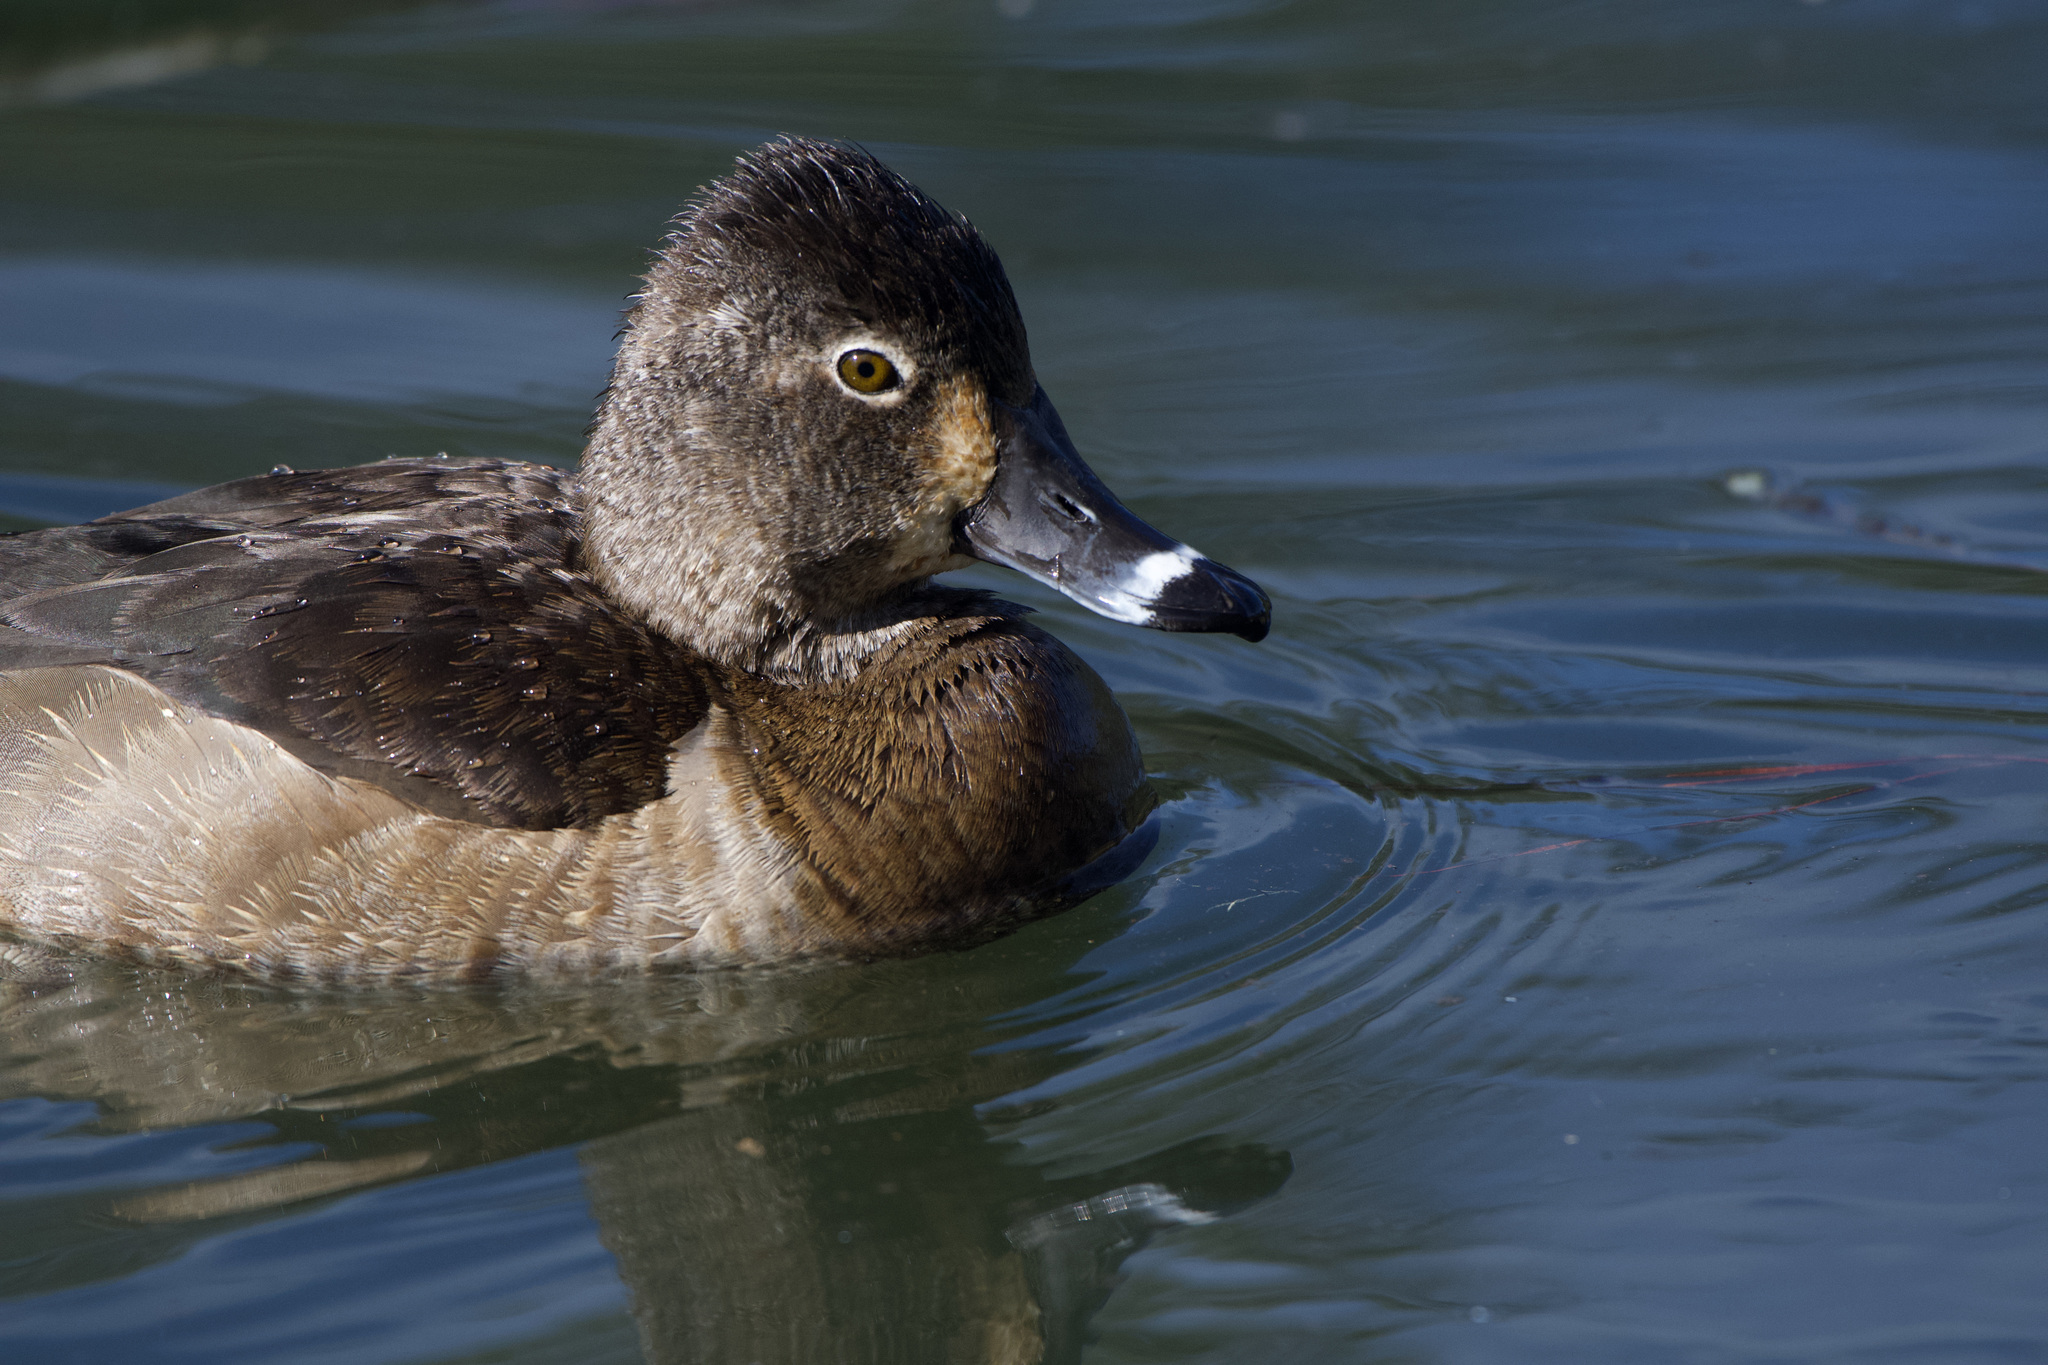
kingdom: Animalia
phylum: Chordata
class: Aves
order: Anseriformes
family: Anatidae
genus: Aythya
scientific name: Aythya collaris
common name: Ring-necked duck
